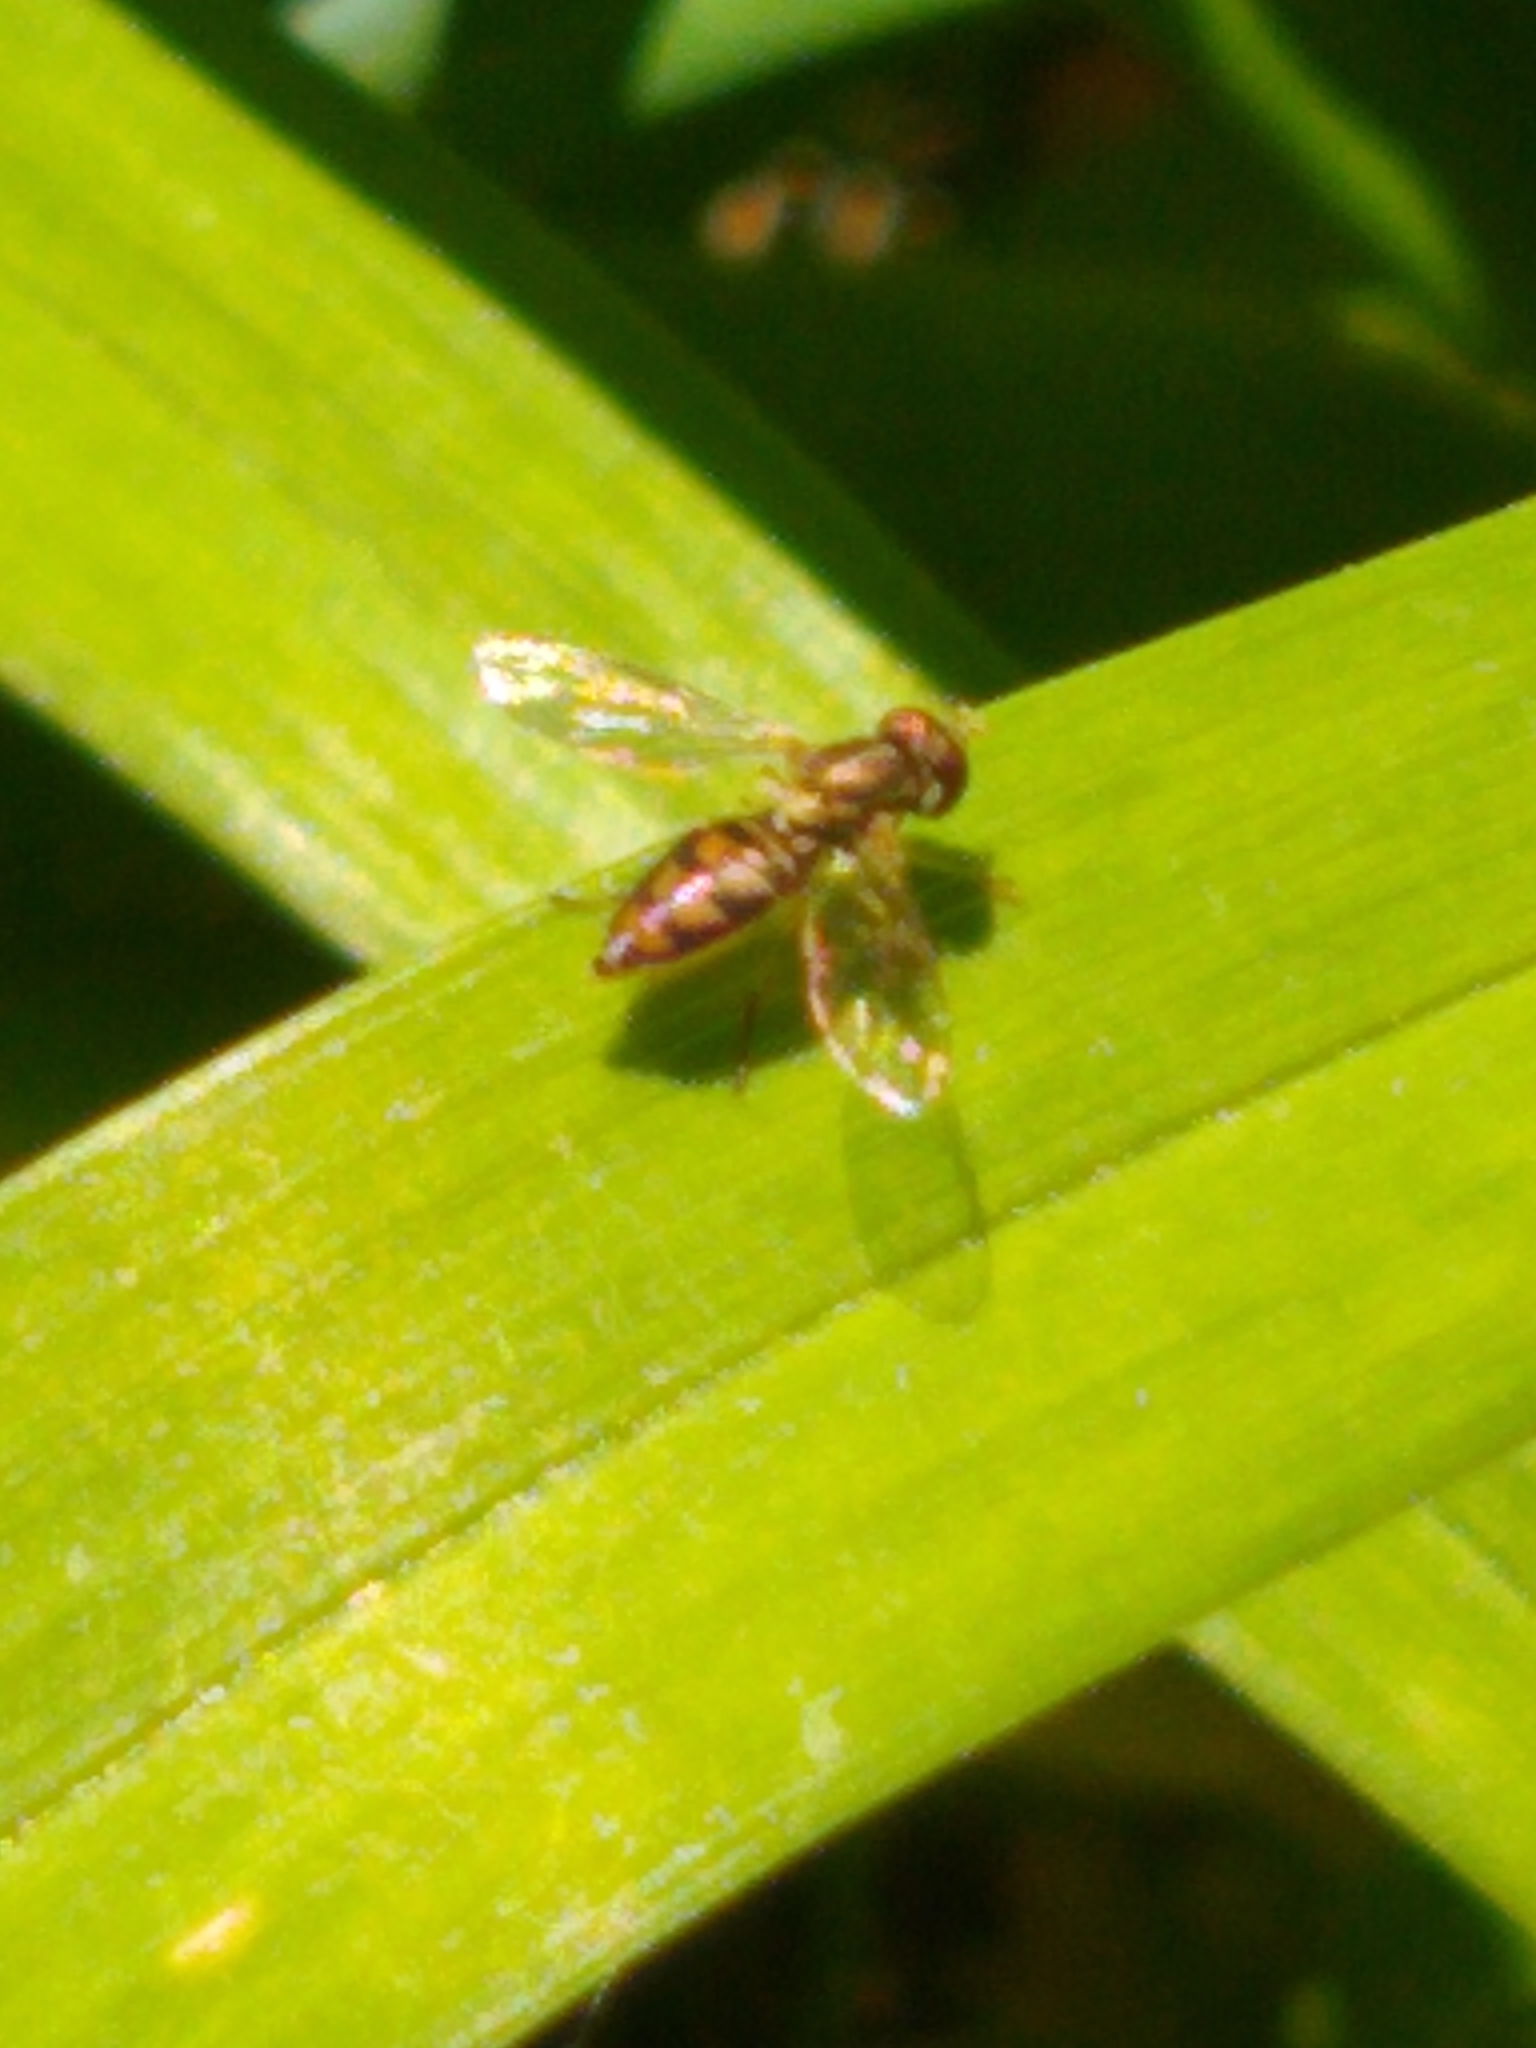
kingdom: Animalia
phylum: Arthropoda
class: Insecta
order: Diptera
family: Syrphidae
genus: Toxomerus
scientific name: Toxomerus marginatus
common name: Syrphid fly
